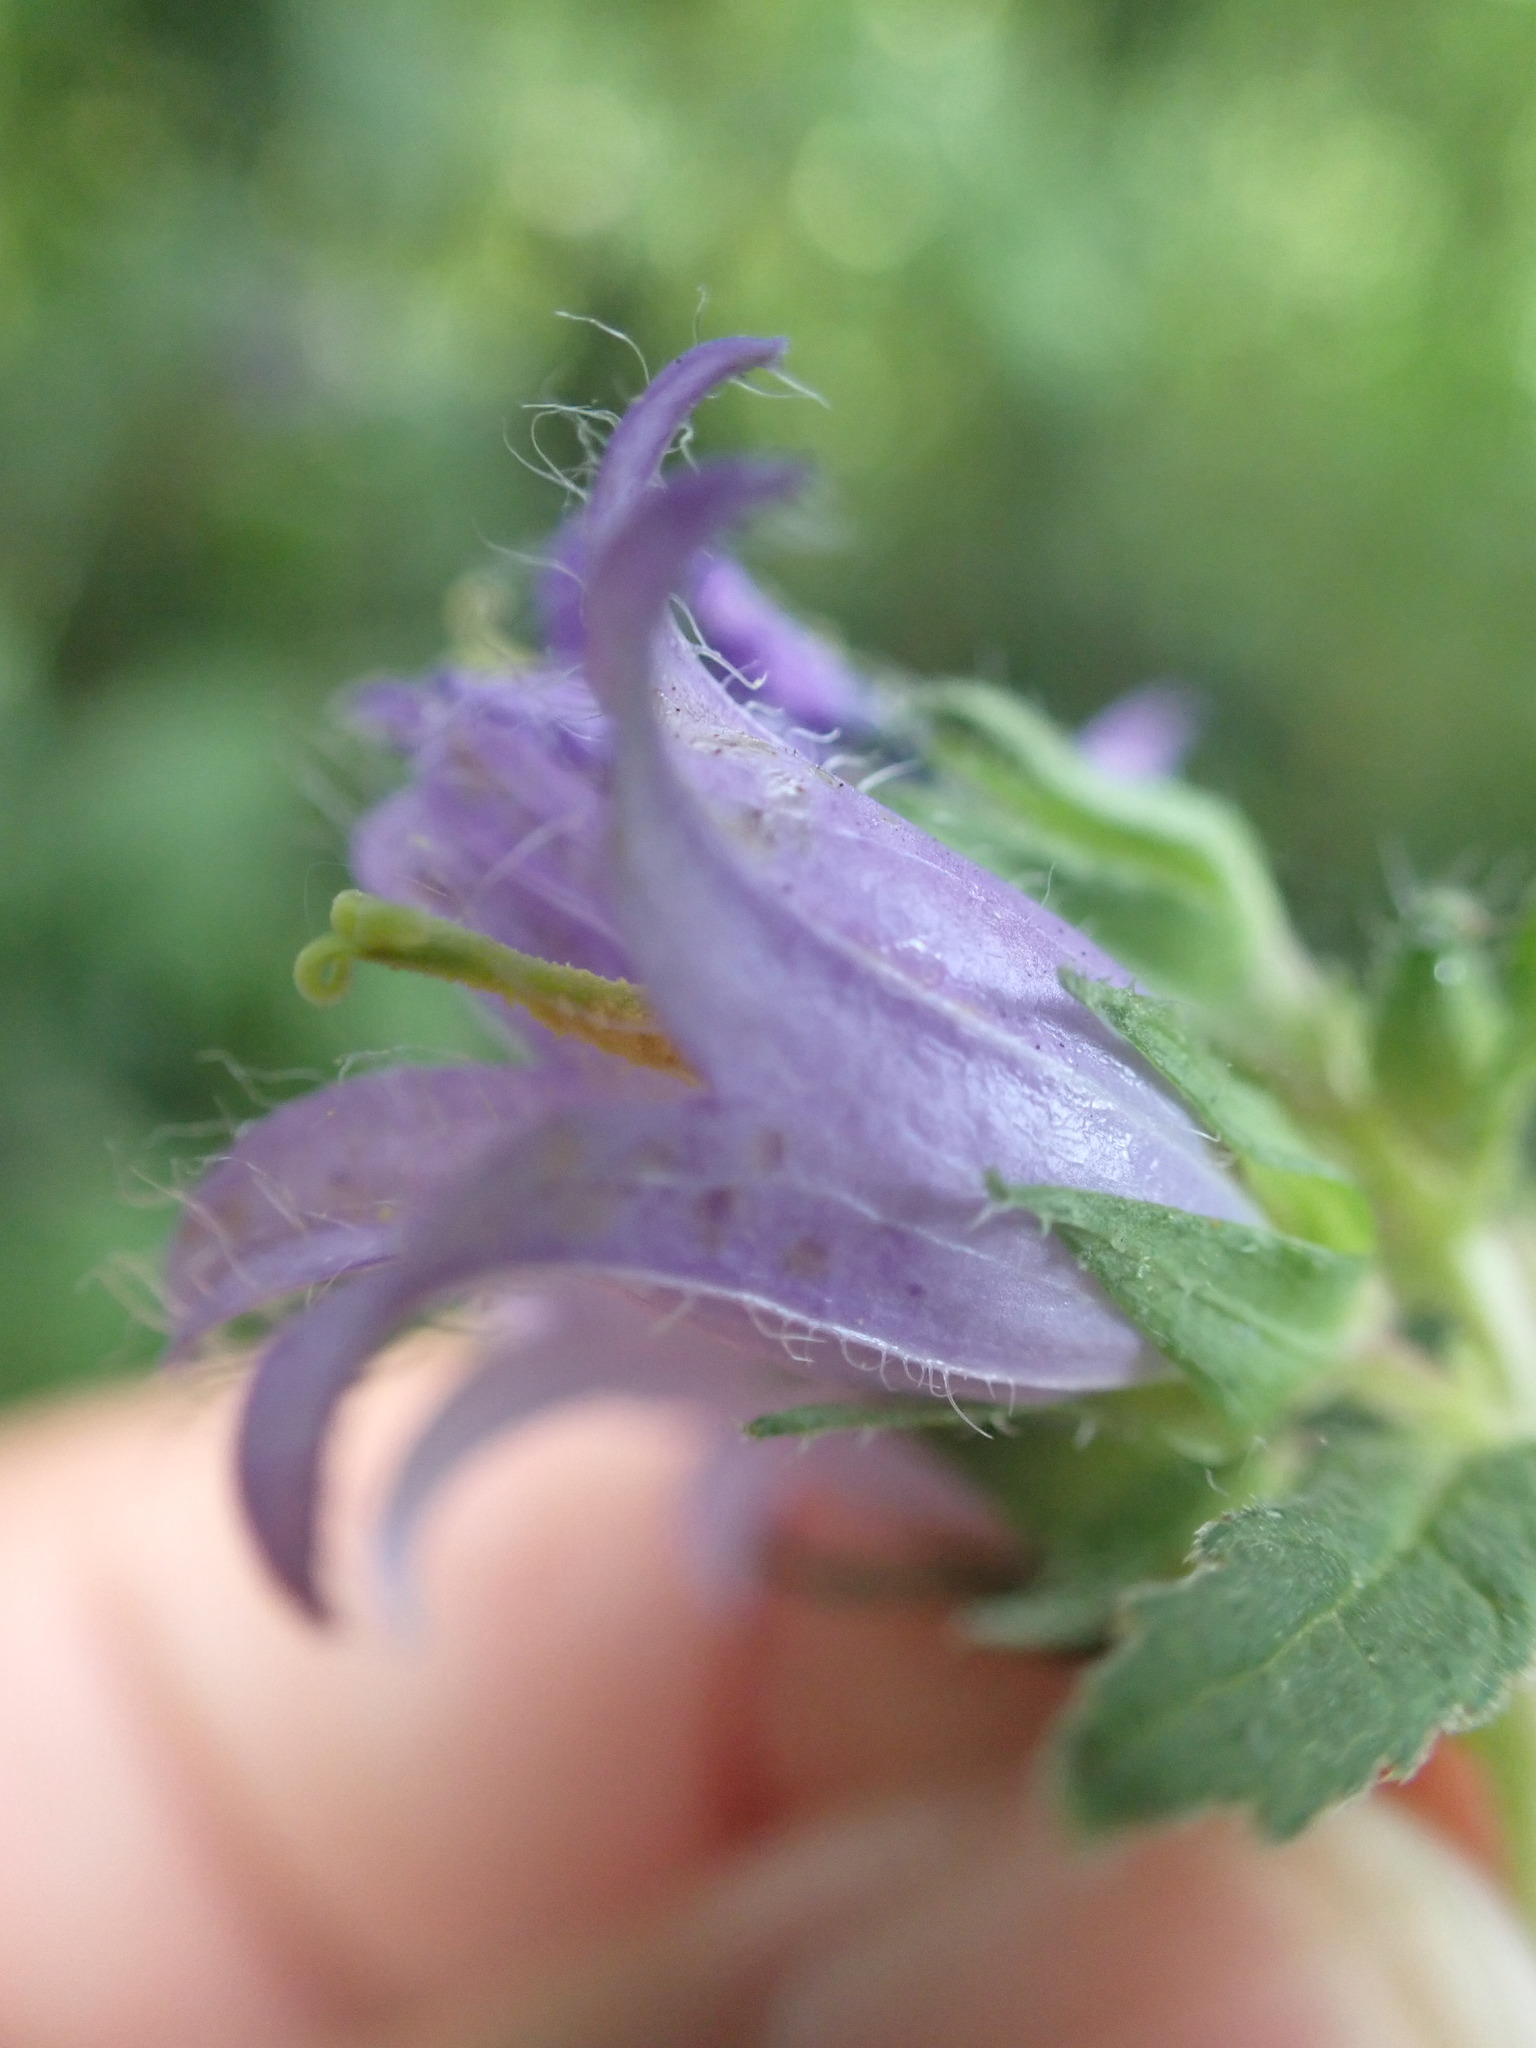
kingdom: Plantae
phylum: Tracheophyta
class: Magnoliopsida
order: Asterales
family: Campanulaceae
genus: Campanula
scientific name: Campanula trachelium
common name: Nettle-leaved bellflower
